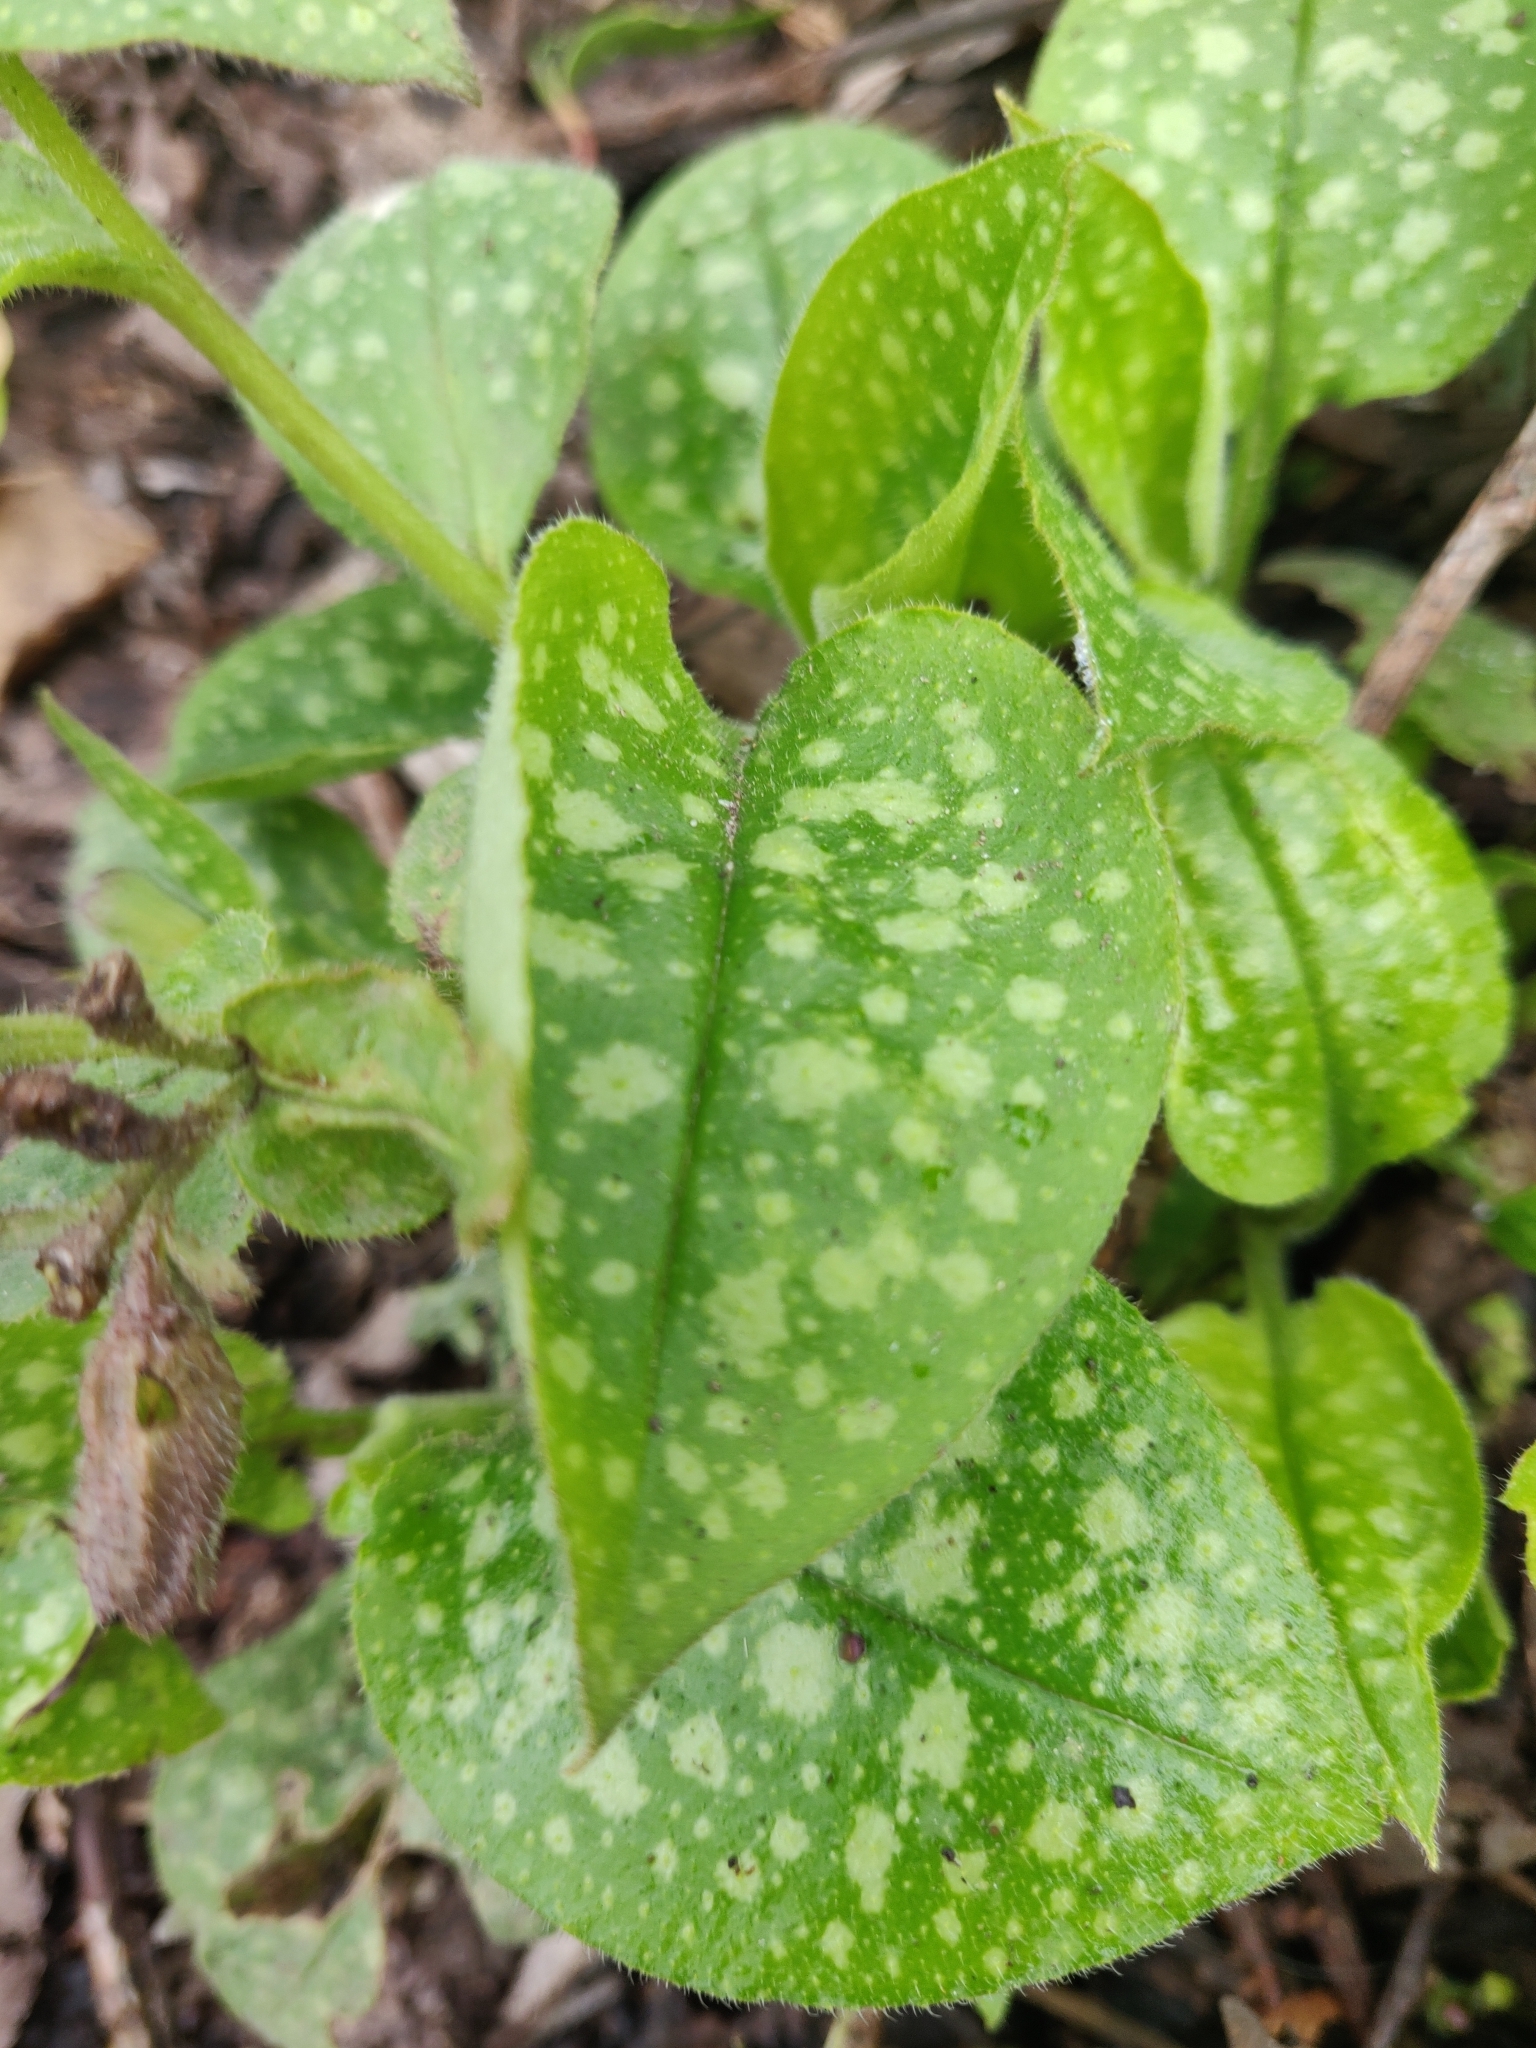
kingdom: Plantae
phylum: Tracheophyta
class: Magnoliopsida
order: Boraginales
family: Boraginaceae
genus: Pulmonaria
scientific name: Pulmonaria officinalis
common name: Lungwort
